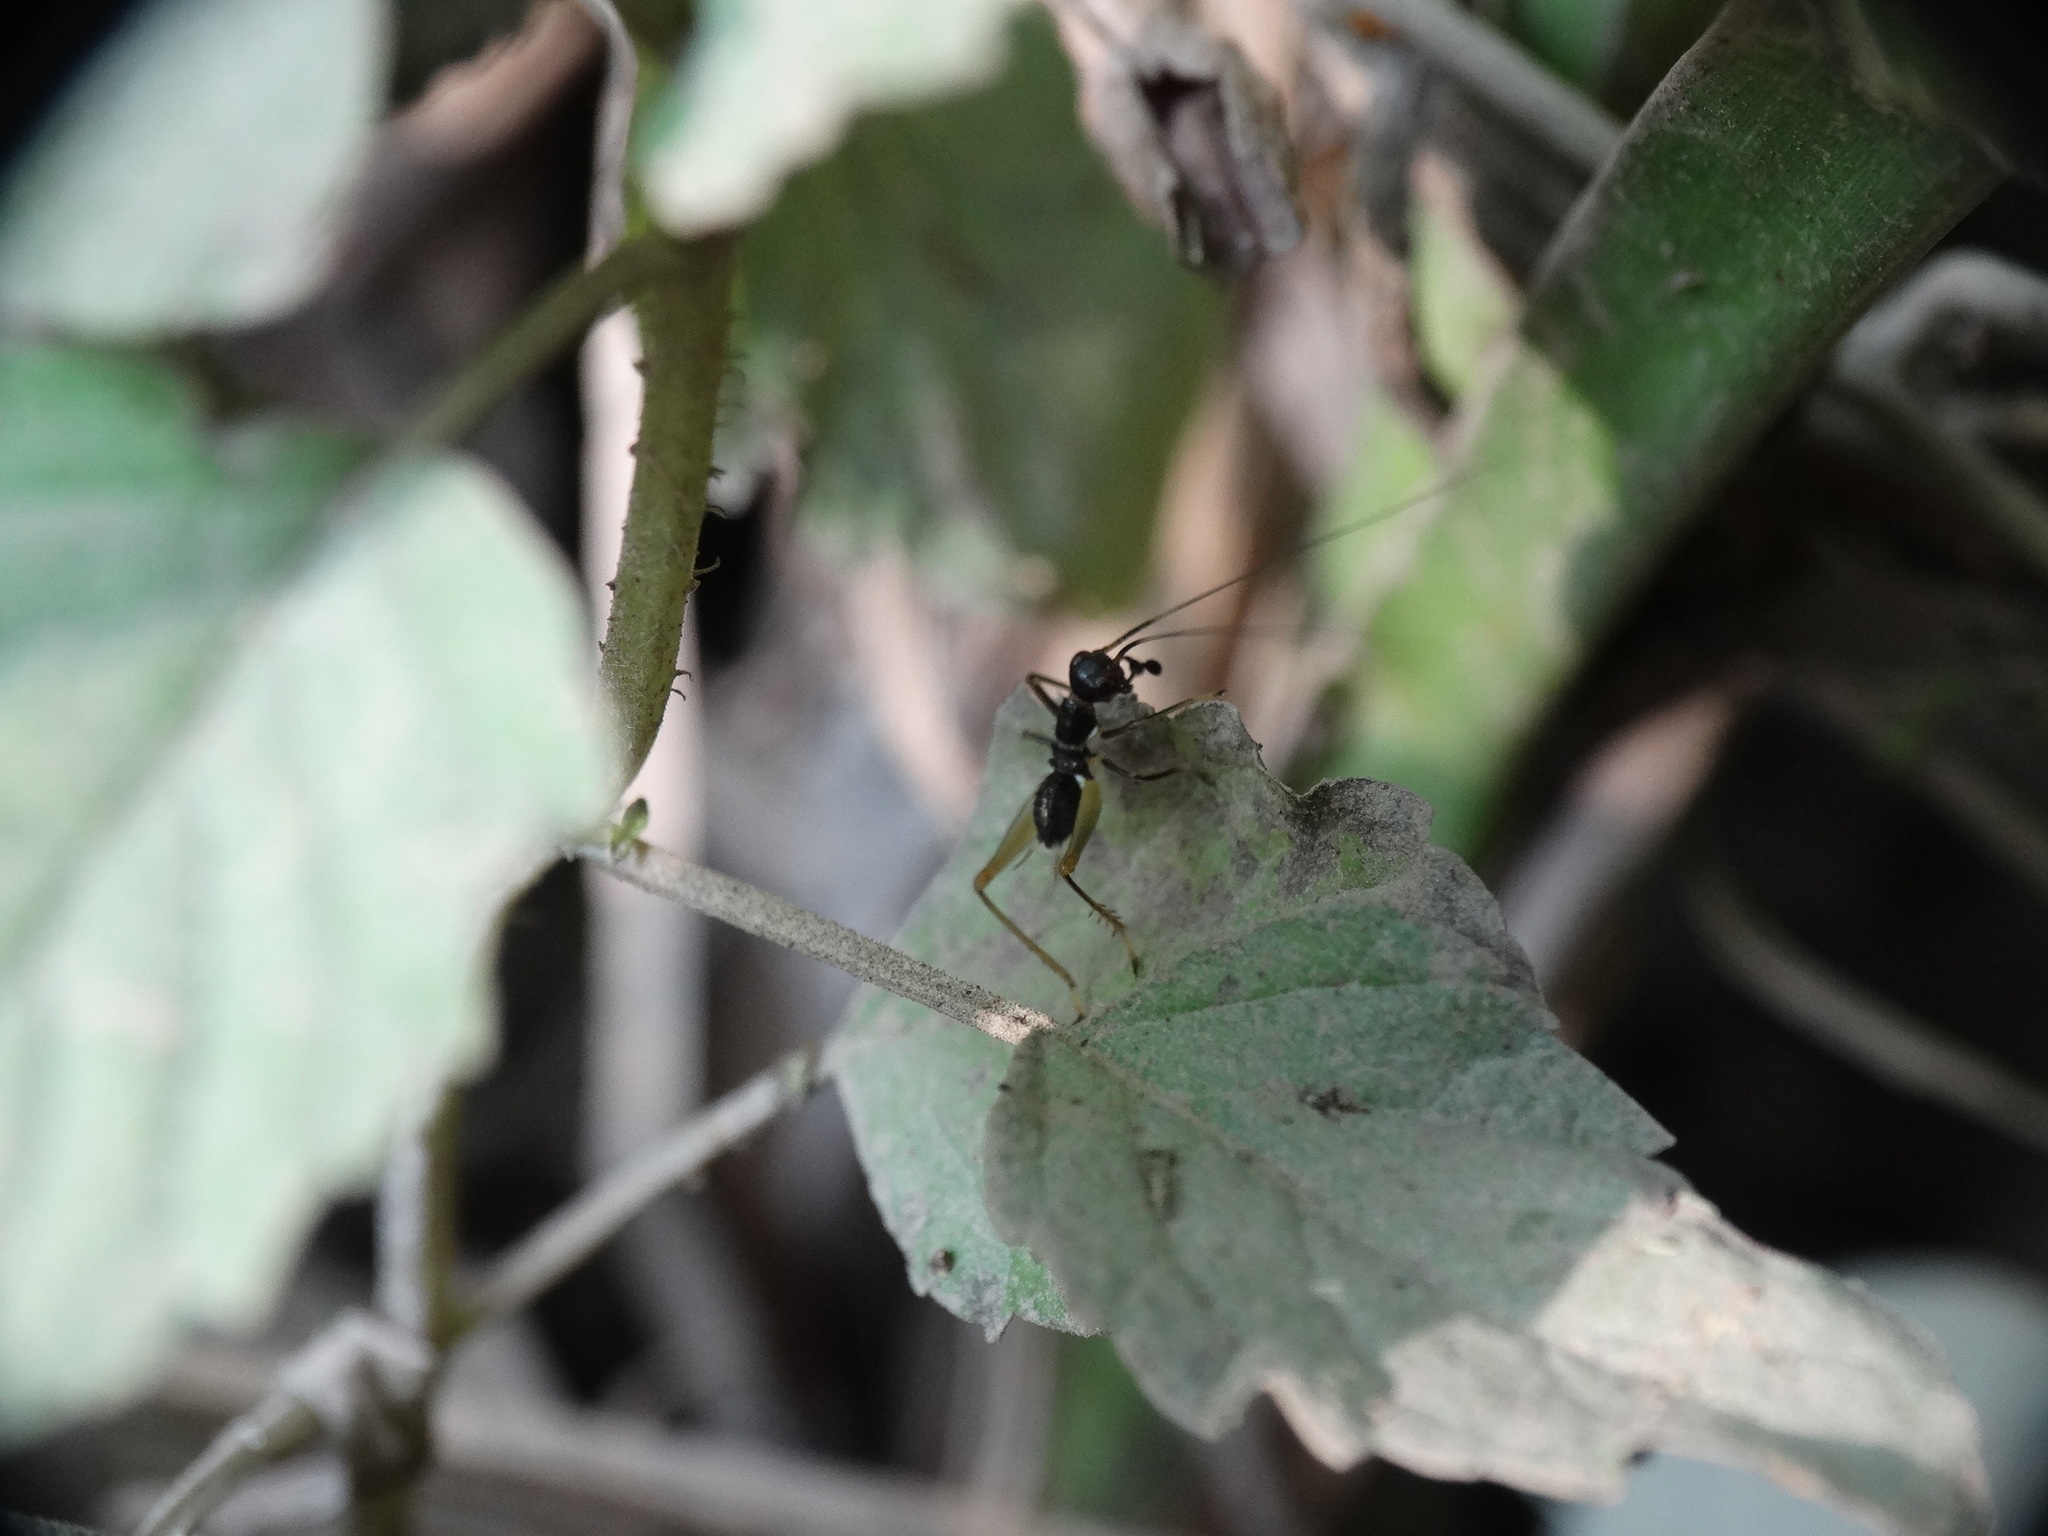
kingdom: Animalia
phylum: Arthropoda
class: Insecta
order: Orthoptera
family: Trigonidiidae
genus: Phylloscyrtus
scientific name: Phylloscyrtus amoenus
